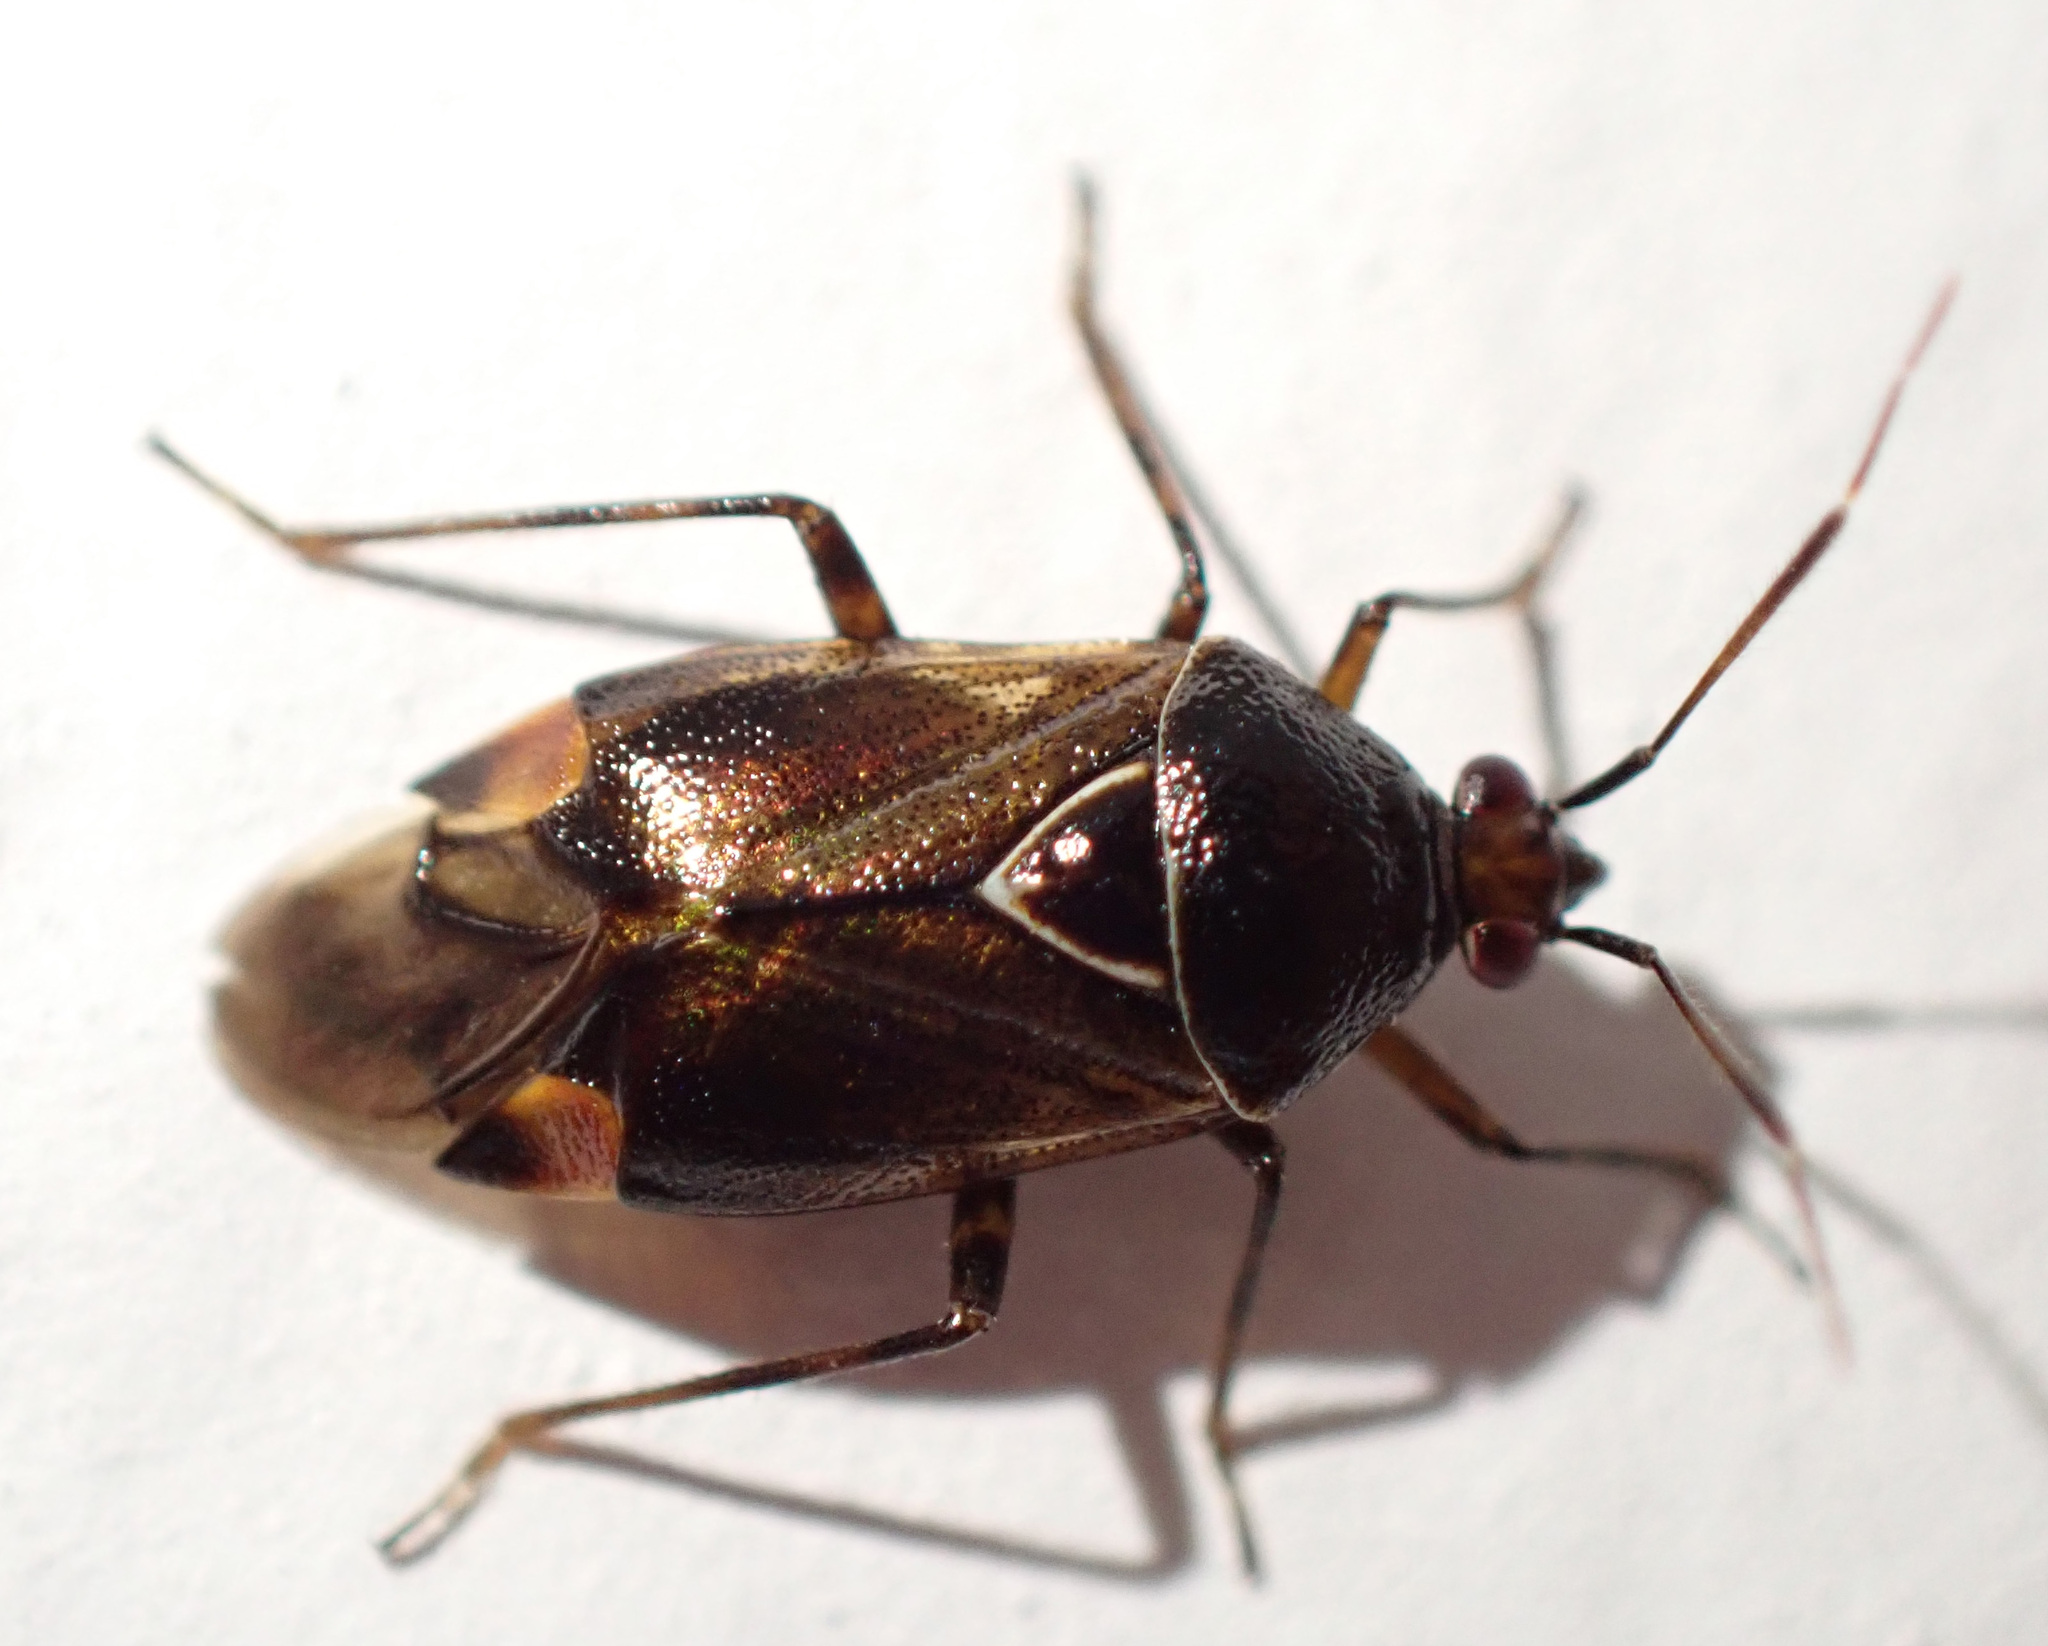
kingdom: Animalia
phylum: Arthropoda
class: Insecta
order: Hemiptera
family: Miridae
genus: Deraeocoris
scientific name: Deraeocoris flavilinea
